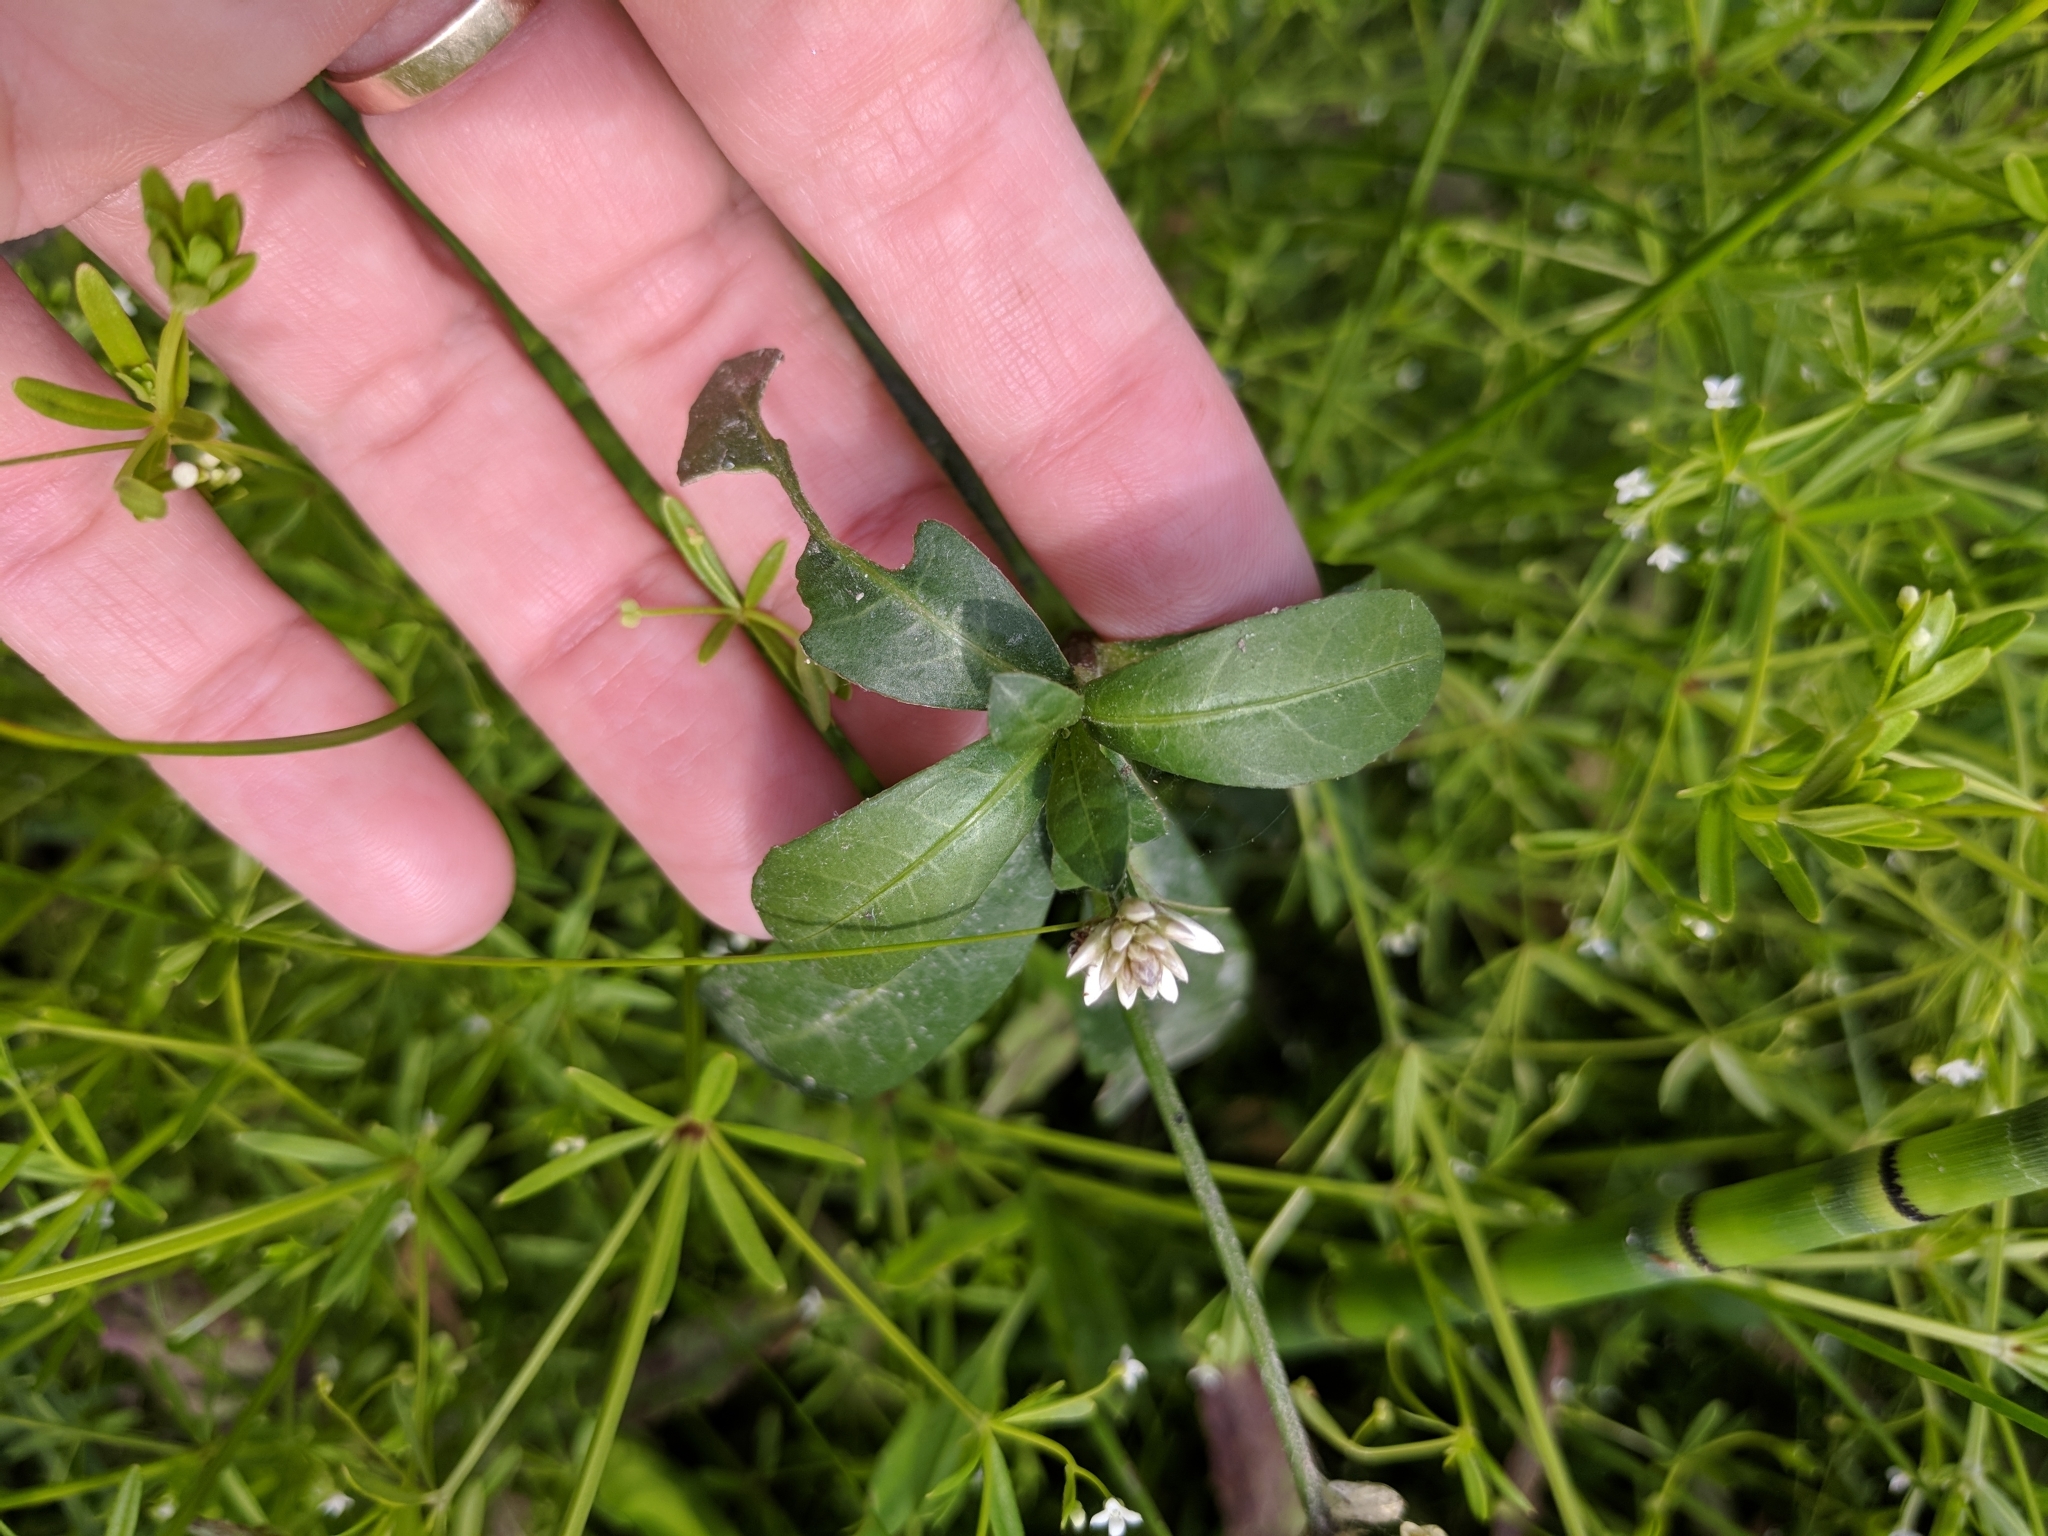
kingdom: Plantae
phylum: Tracheophyta
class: Magnoliopsida
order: Caryophyllales
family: Amaranthaceae
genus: Alternanthera
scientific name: Alternanthera philoxeroides
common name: Alligatorweed
